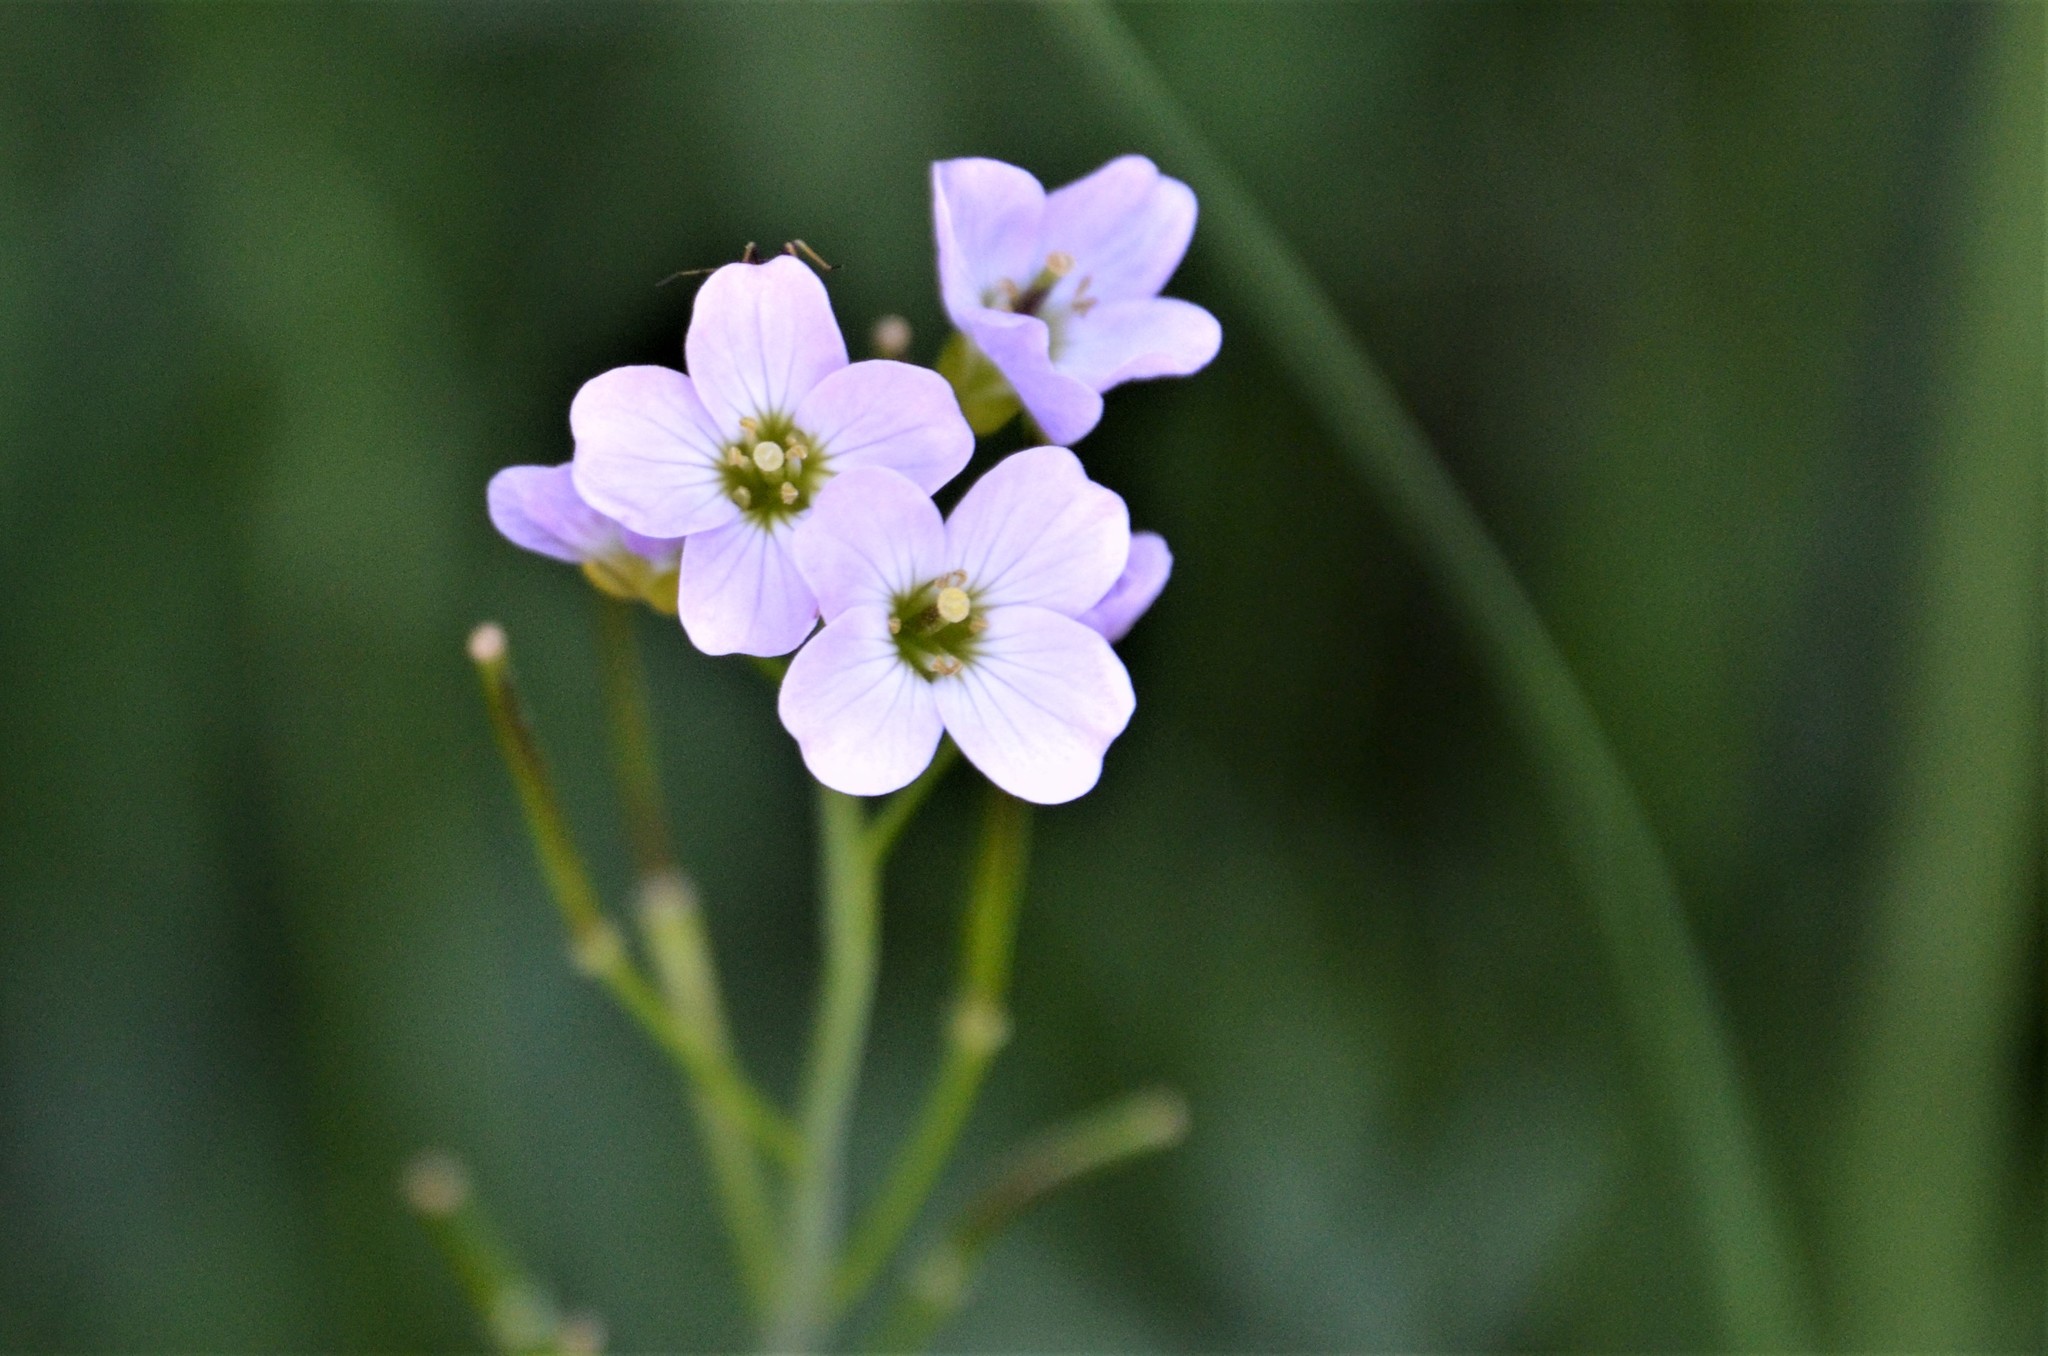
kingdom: Plantae
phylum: Tracheophyta
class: Magnoliopsida
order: Brassicales
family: Brassicaceae
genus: Cardamine
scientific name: Cardamine pratensis
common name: Cuckoo flower
